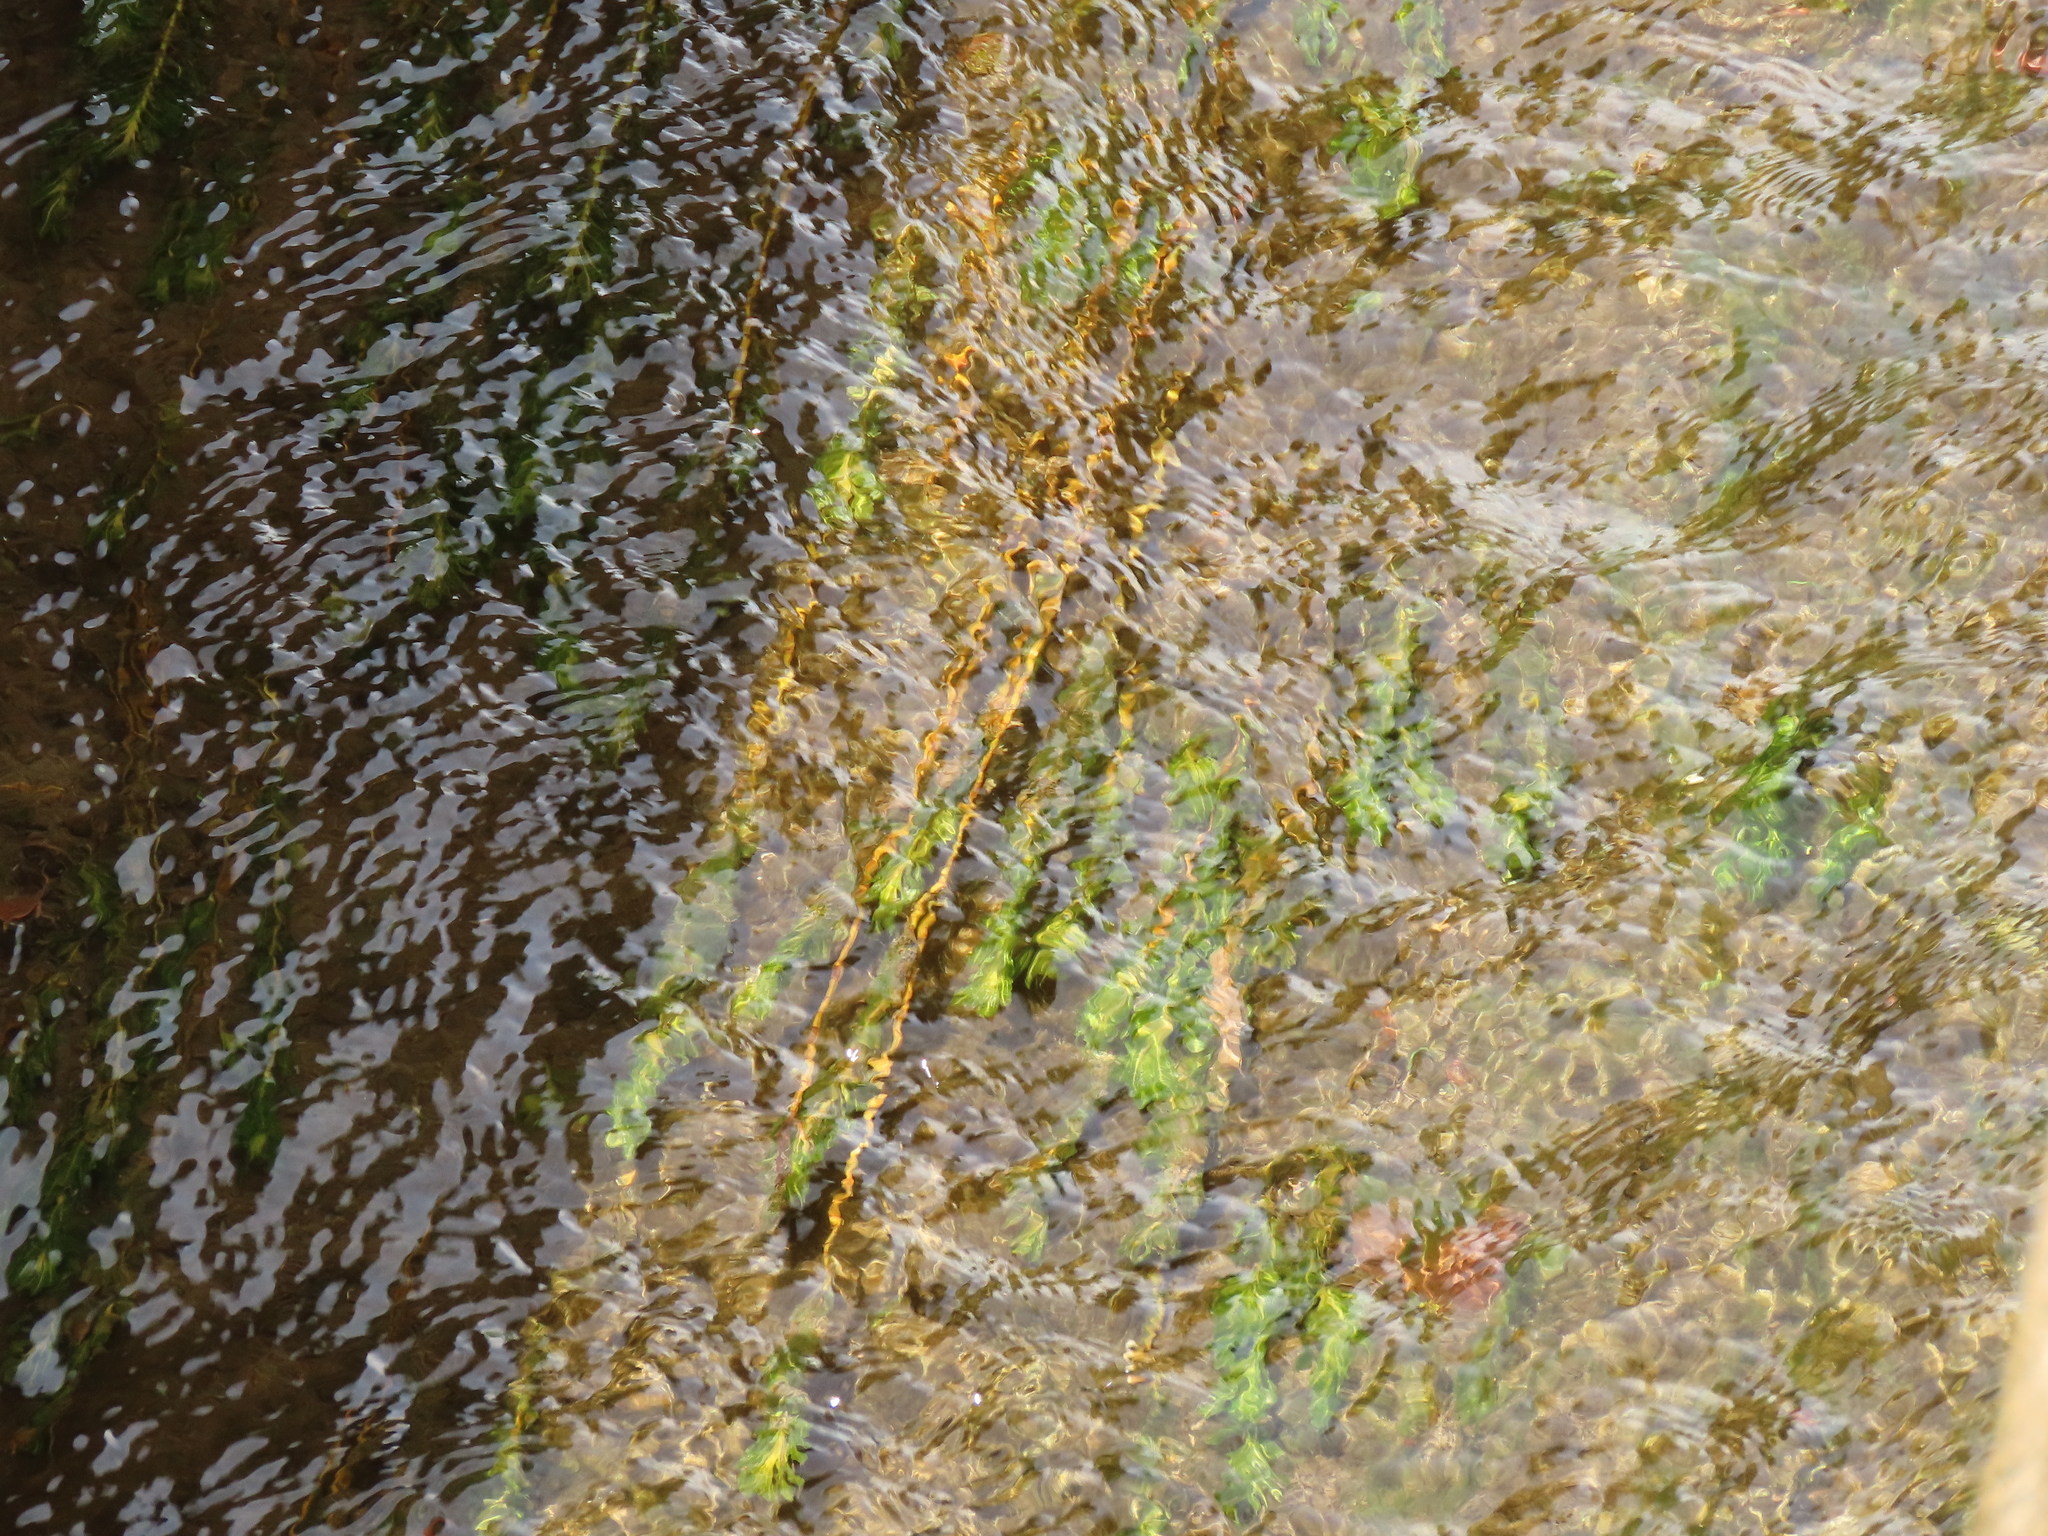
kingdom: Plantae
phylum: Tracheophyta
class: Liliopsida
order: Alismatales
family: Potamogetonaceae
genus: Potamogeton
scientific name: Potamogeton crispus
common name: Curled pondweed
